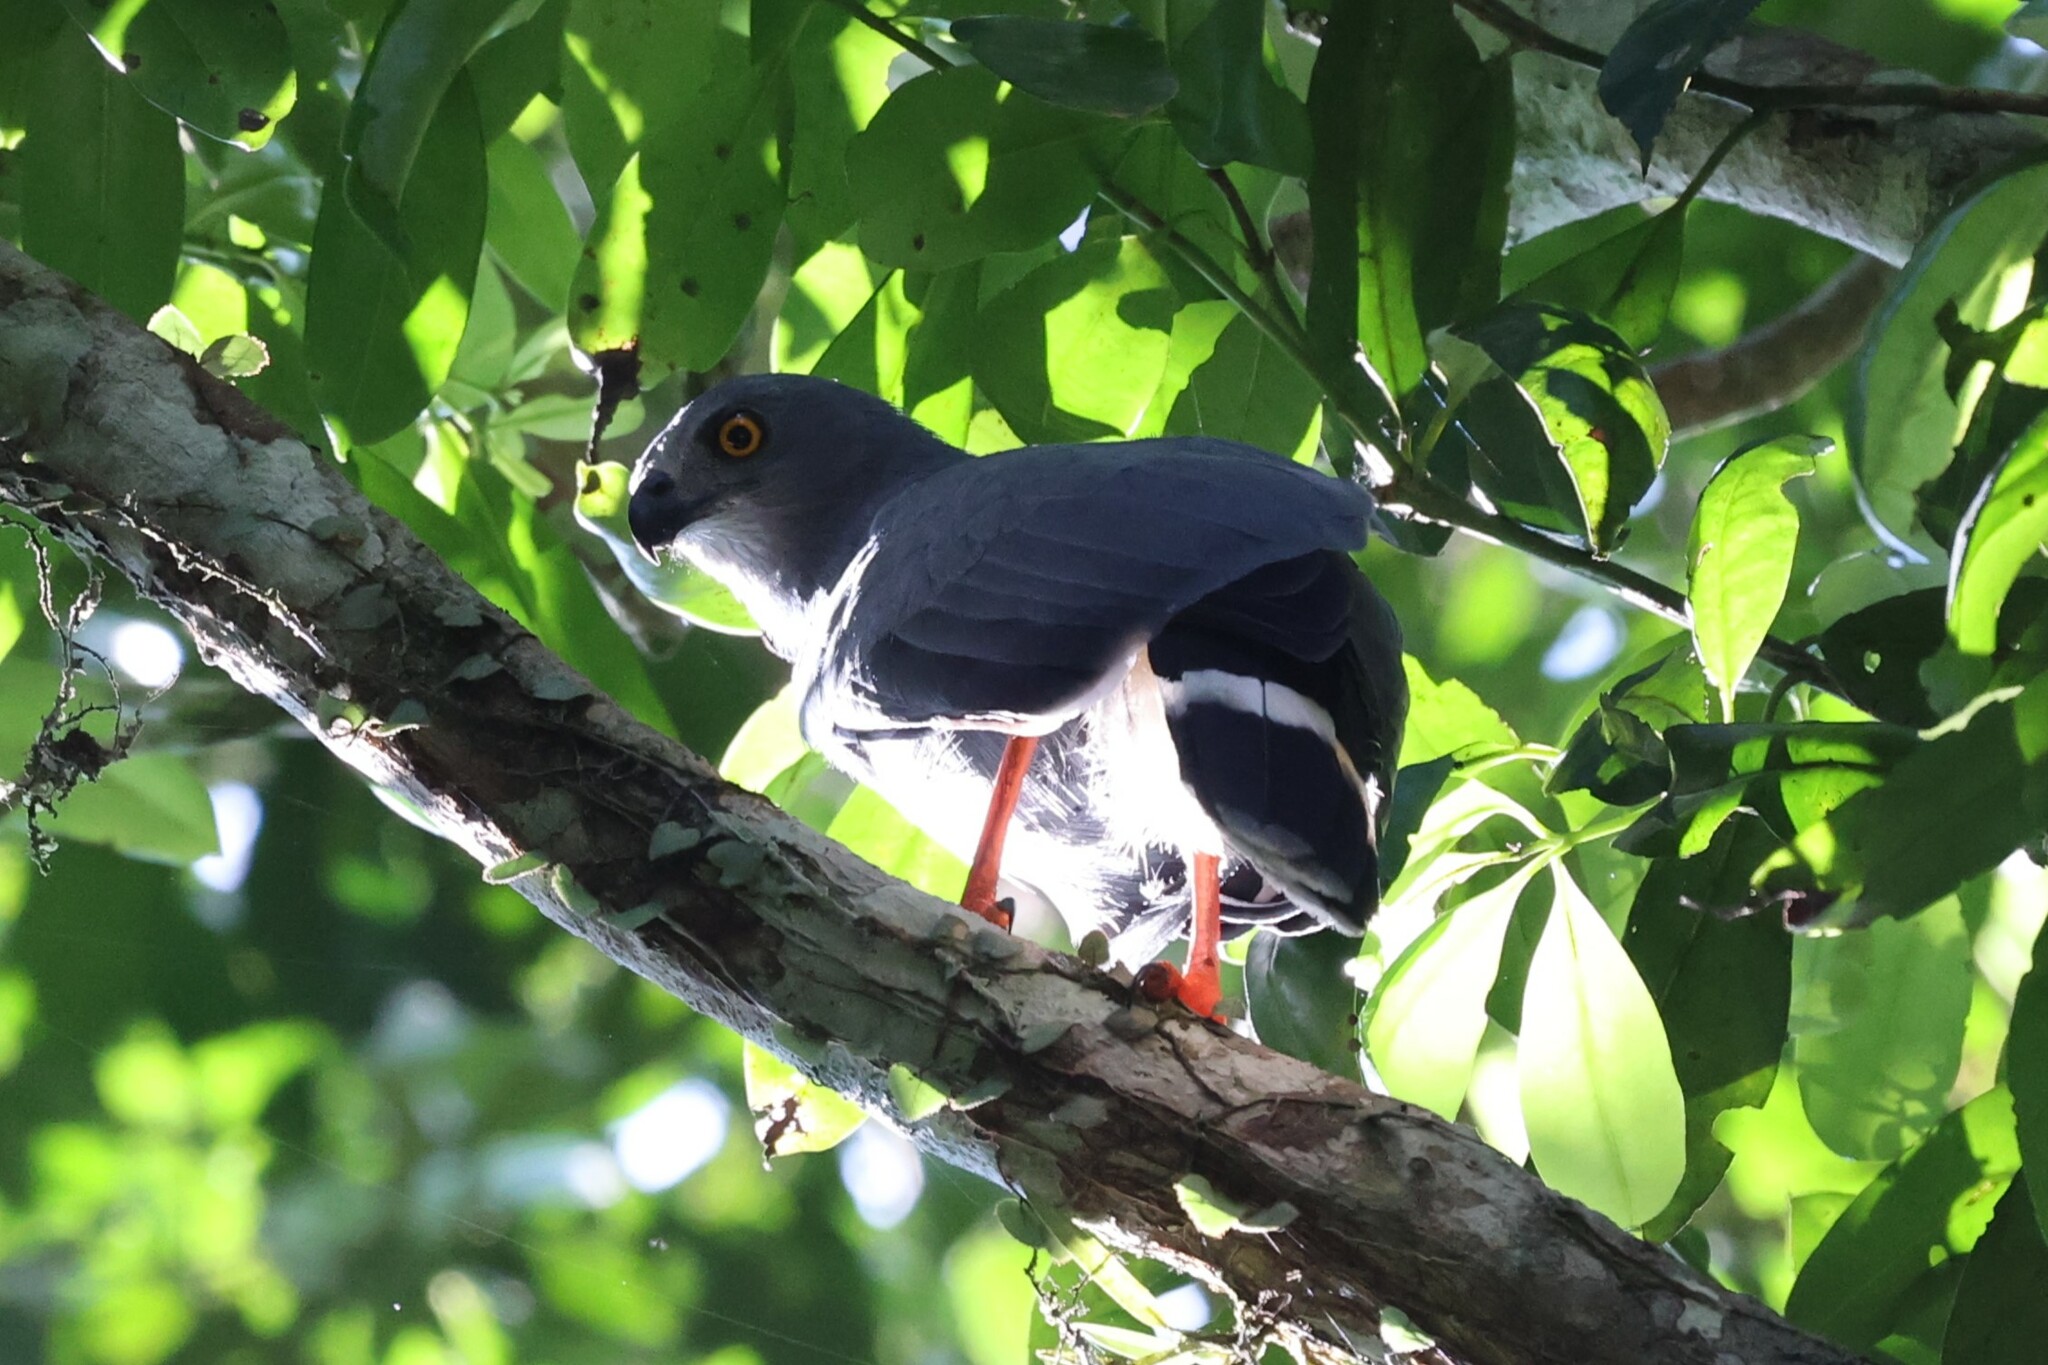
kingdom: Animalia
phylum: Chordata
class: Aves
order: Accipitriformes
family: Accipitridae
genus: Geranospiza
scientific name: Geranospiza caerulescens
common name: Crane hawk
